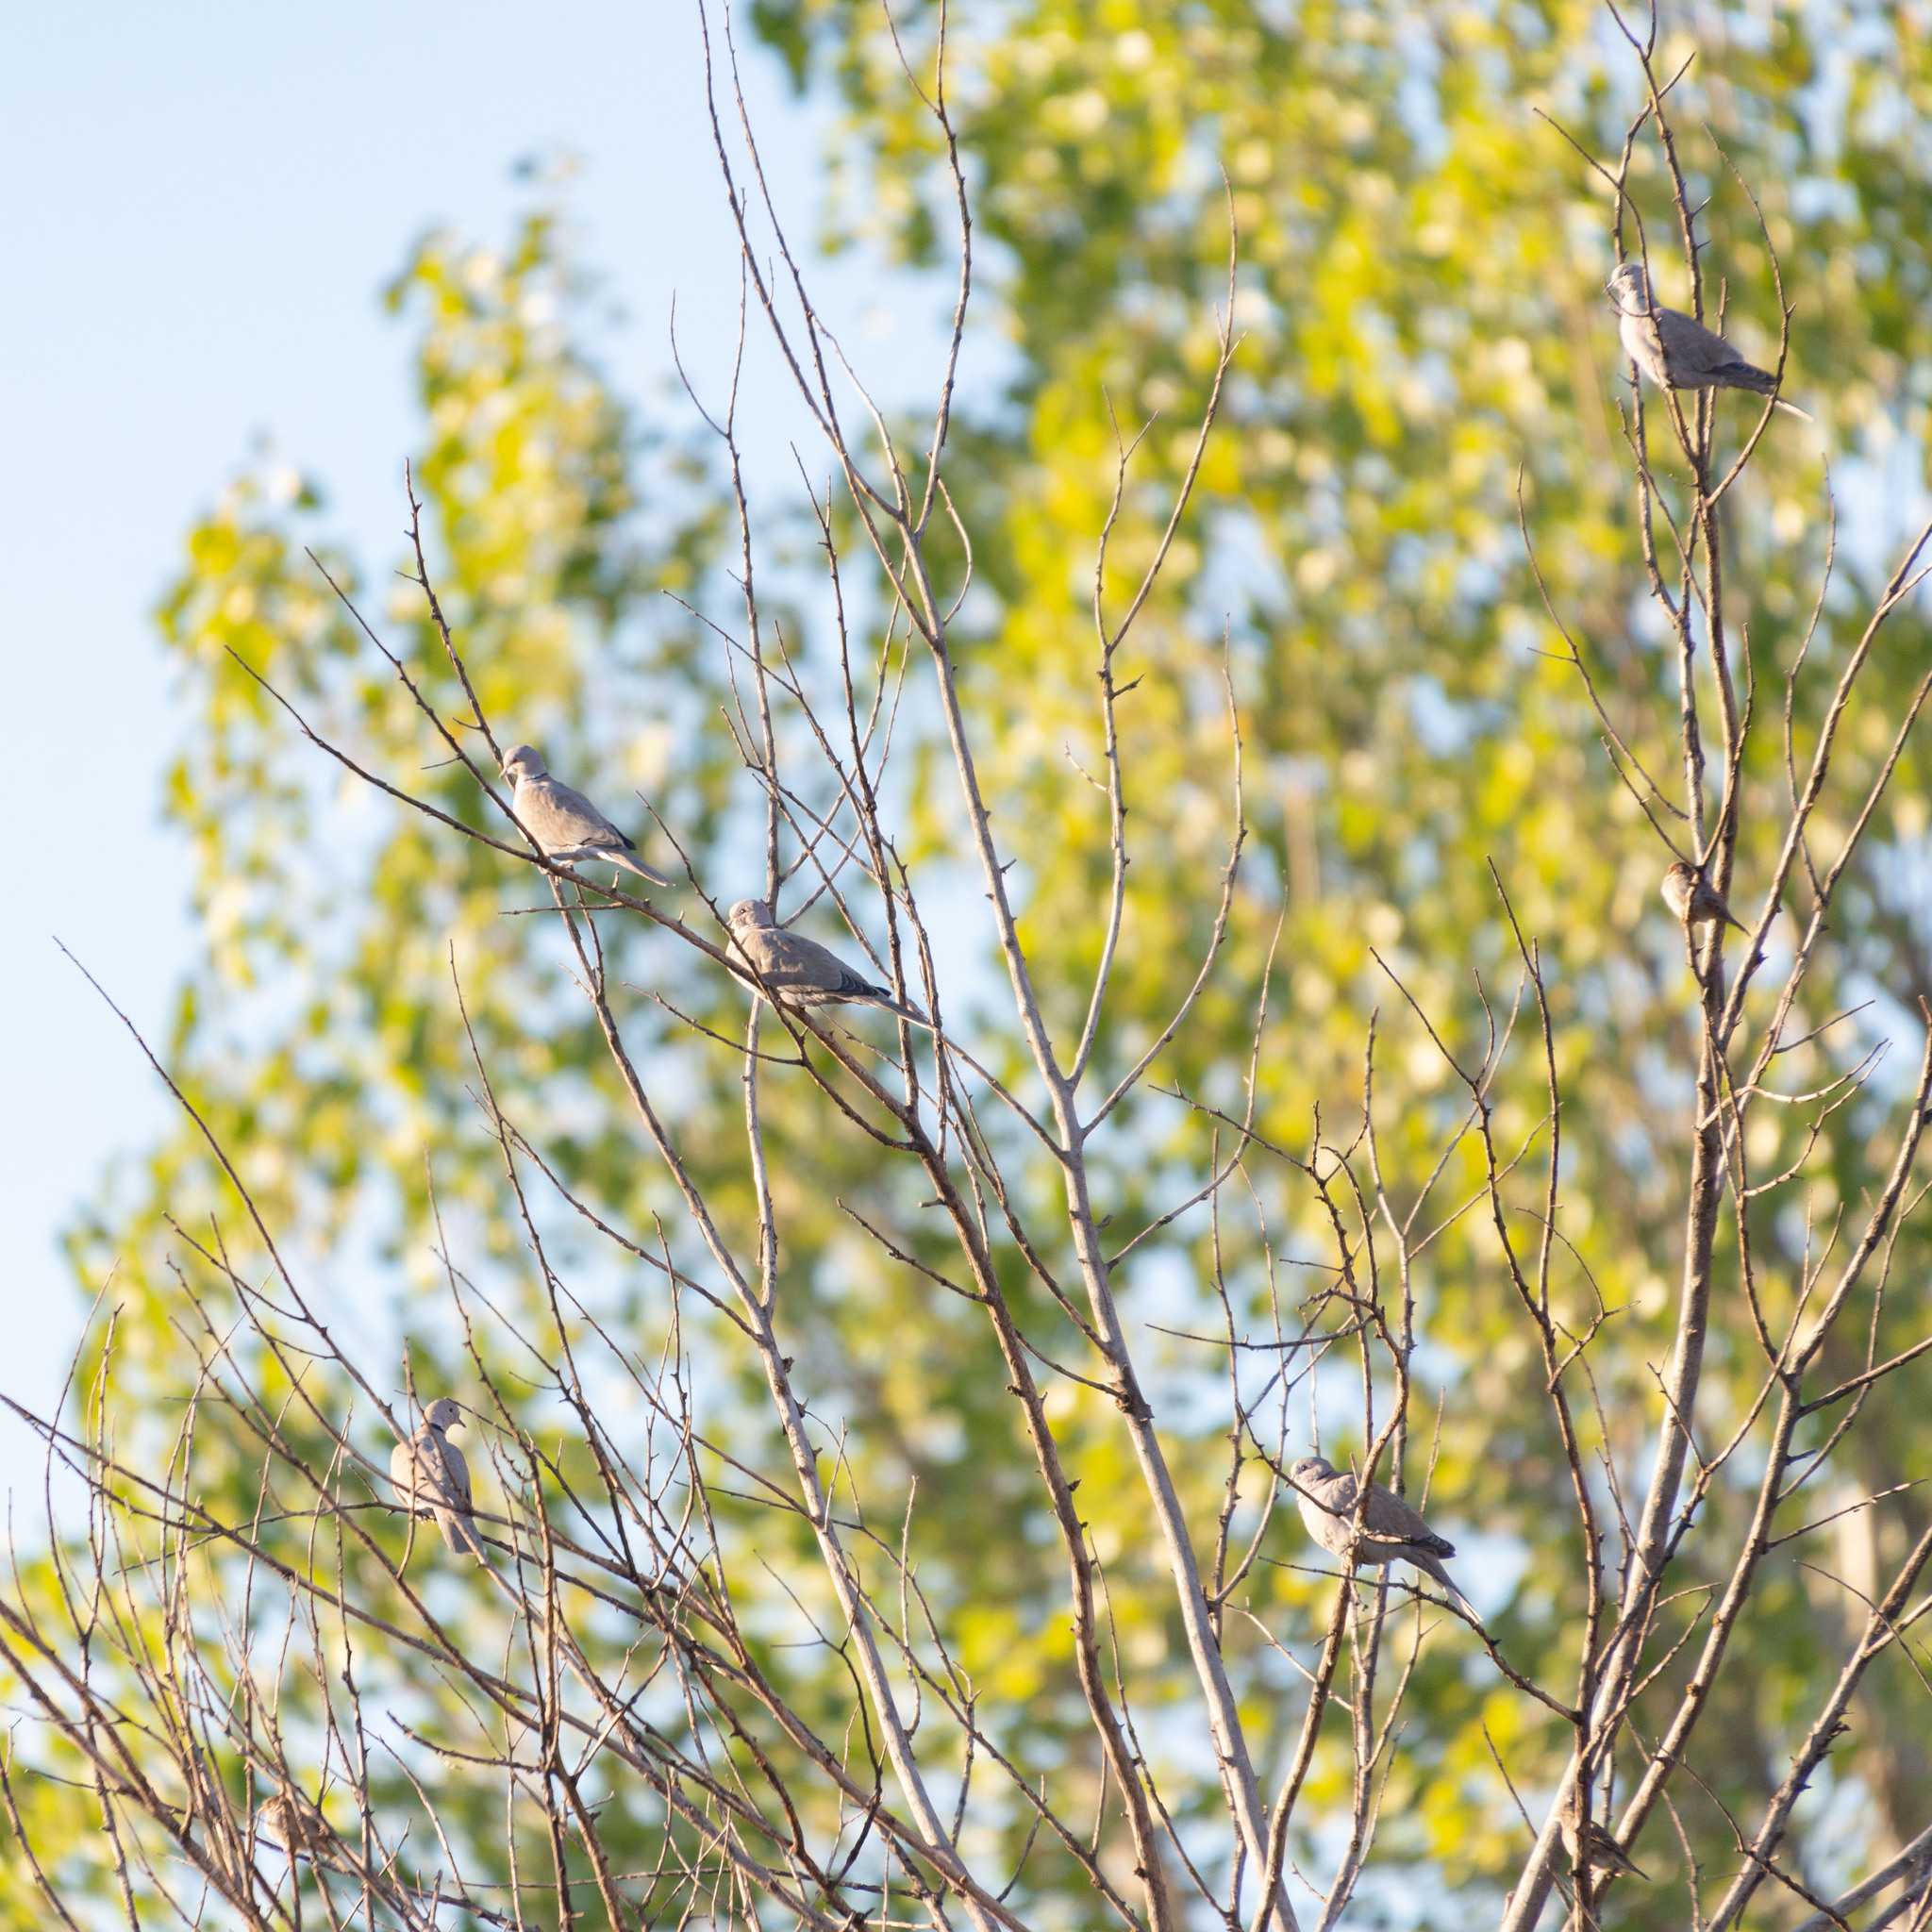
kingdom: Animalia
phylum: Chordata
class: Aves
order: Columbiformes
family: Columbidae
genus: Streptopelia
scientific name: Streptopelia decaocto
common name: Eurasian collared dove
